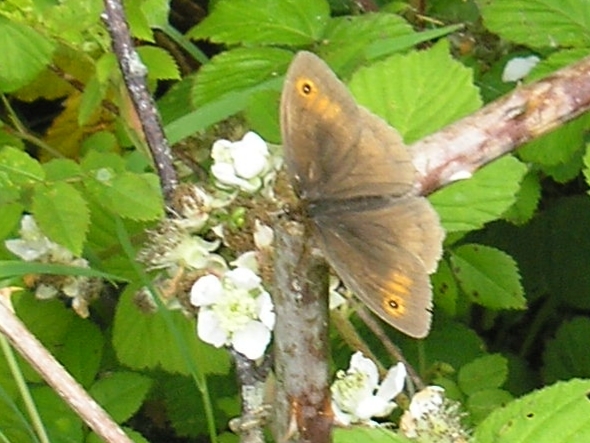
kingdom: Animalia
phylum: Arthropoda
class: Insecta
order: Lepidoptera
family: Nymphalidae
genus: Maniola
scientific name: Maniola jurtina
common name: Meadow brown
